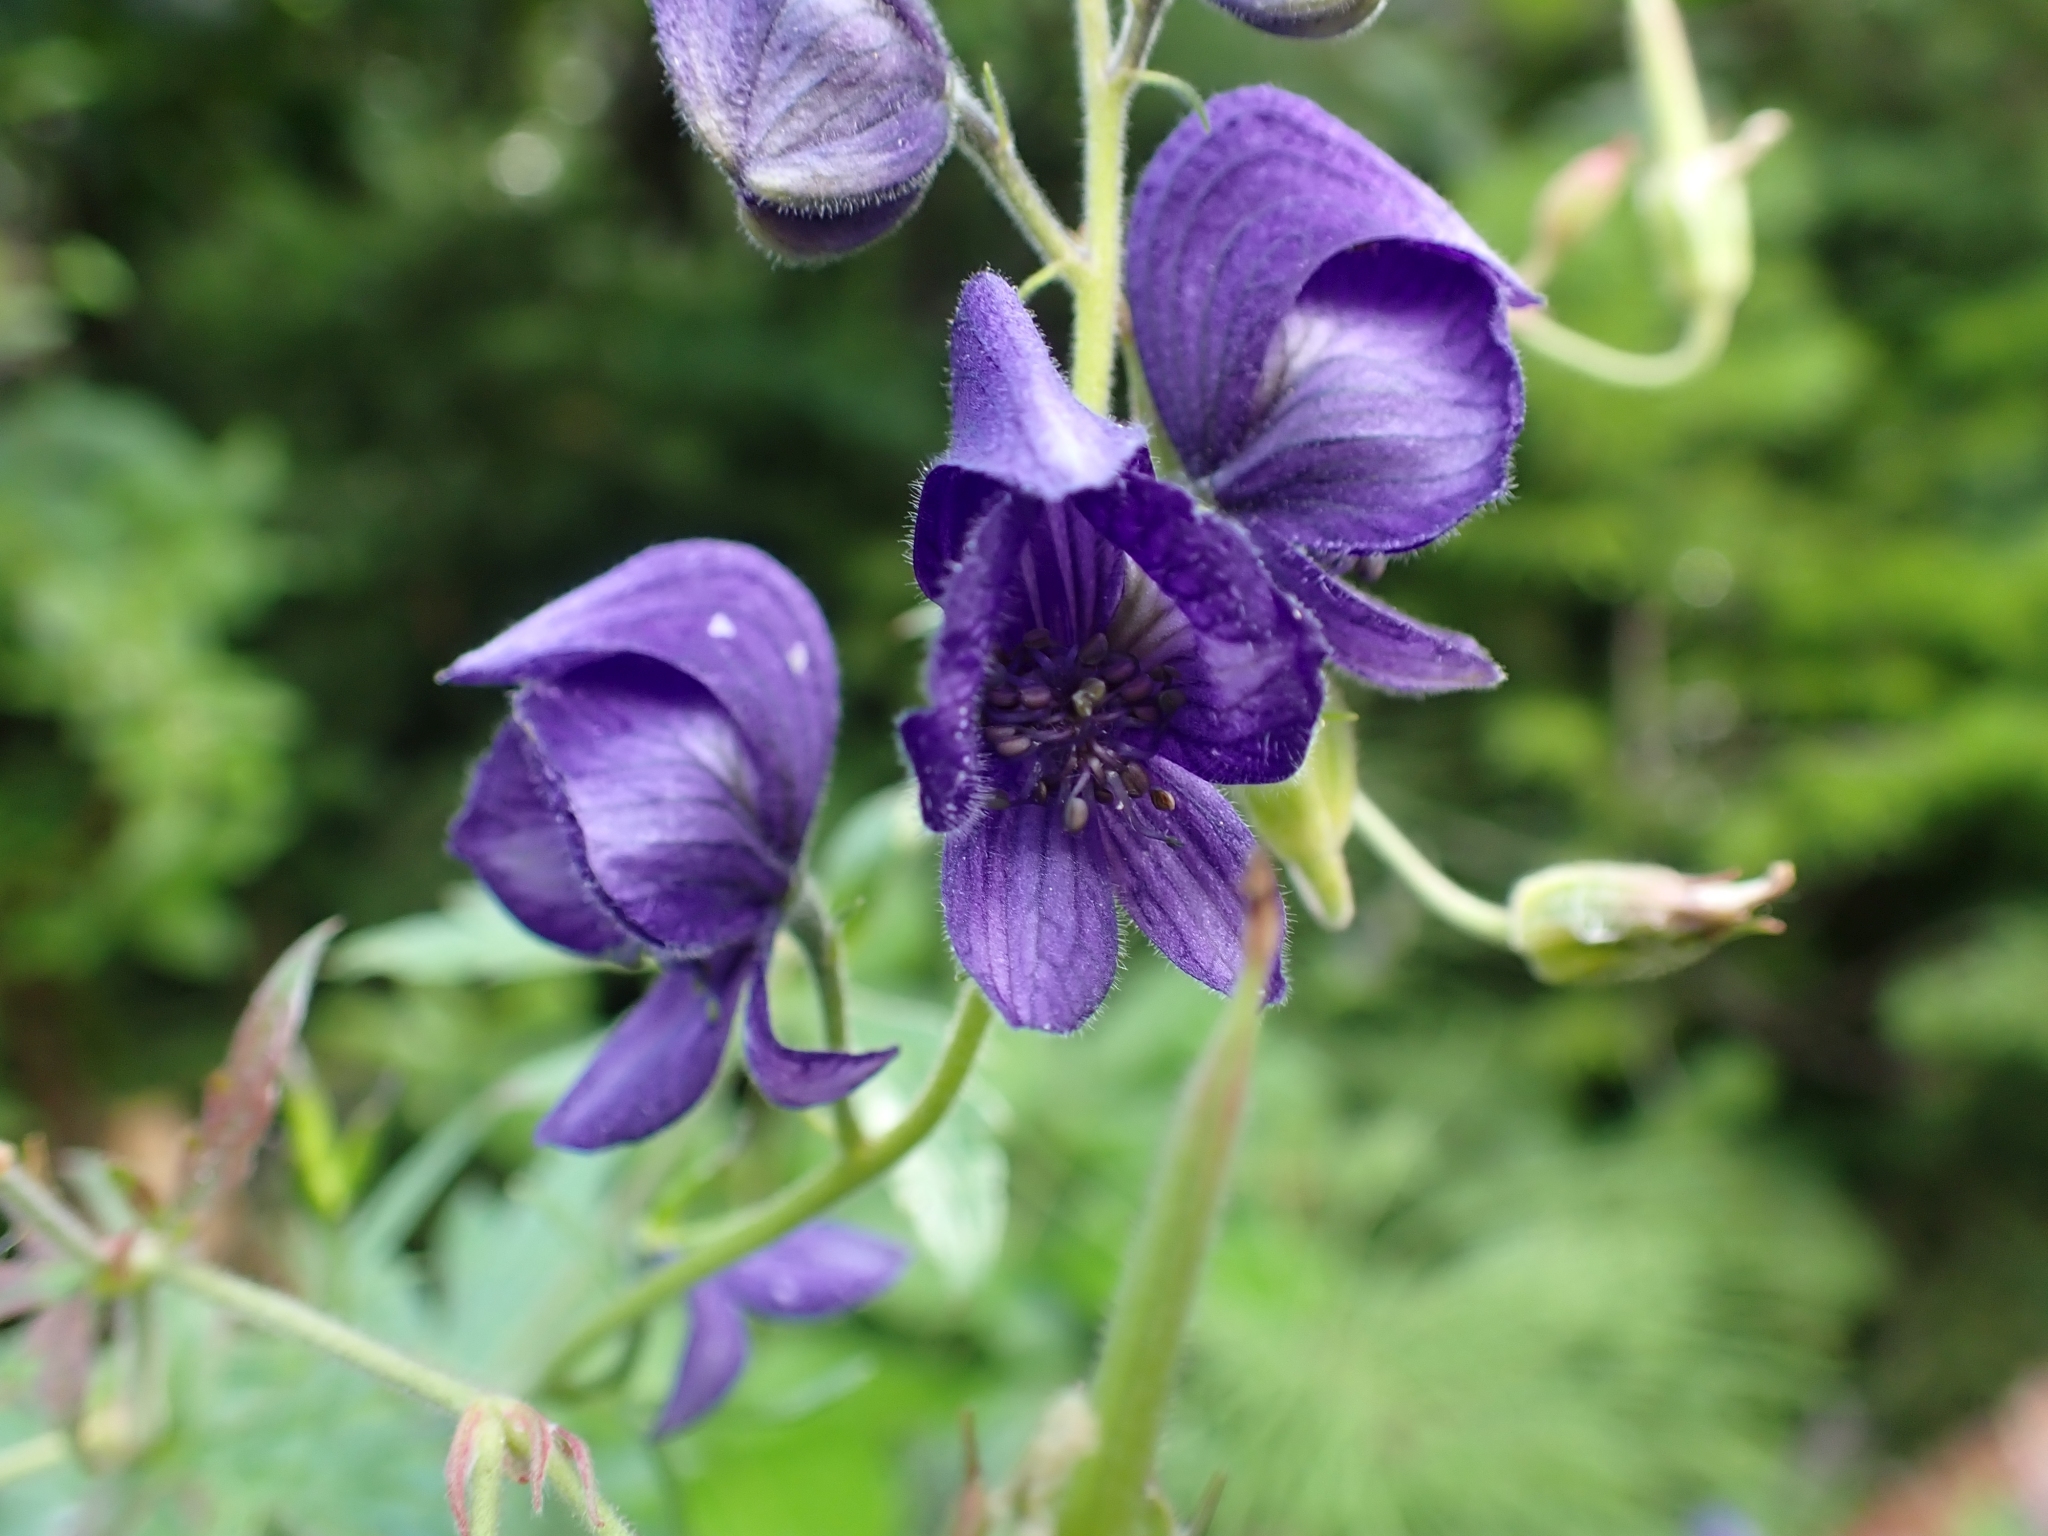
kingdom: Plantae
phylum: Tracheophyta
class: Magnoliopsida
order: Ranunculales
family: Ranunculaceae
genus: Aconitum
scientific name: Aconitum delphiniifolium
